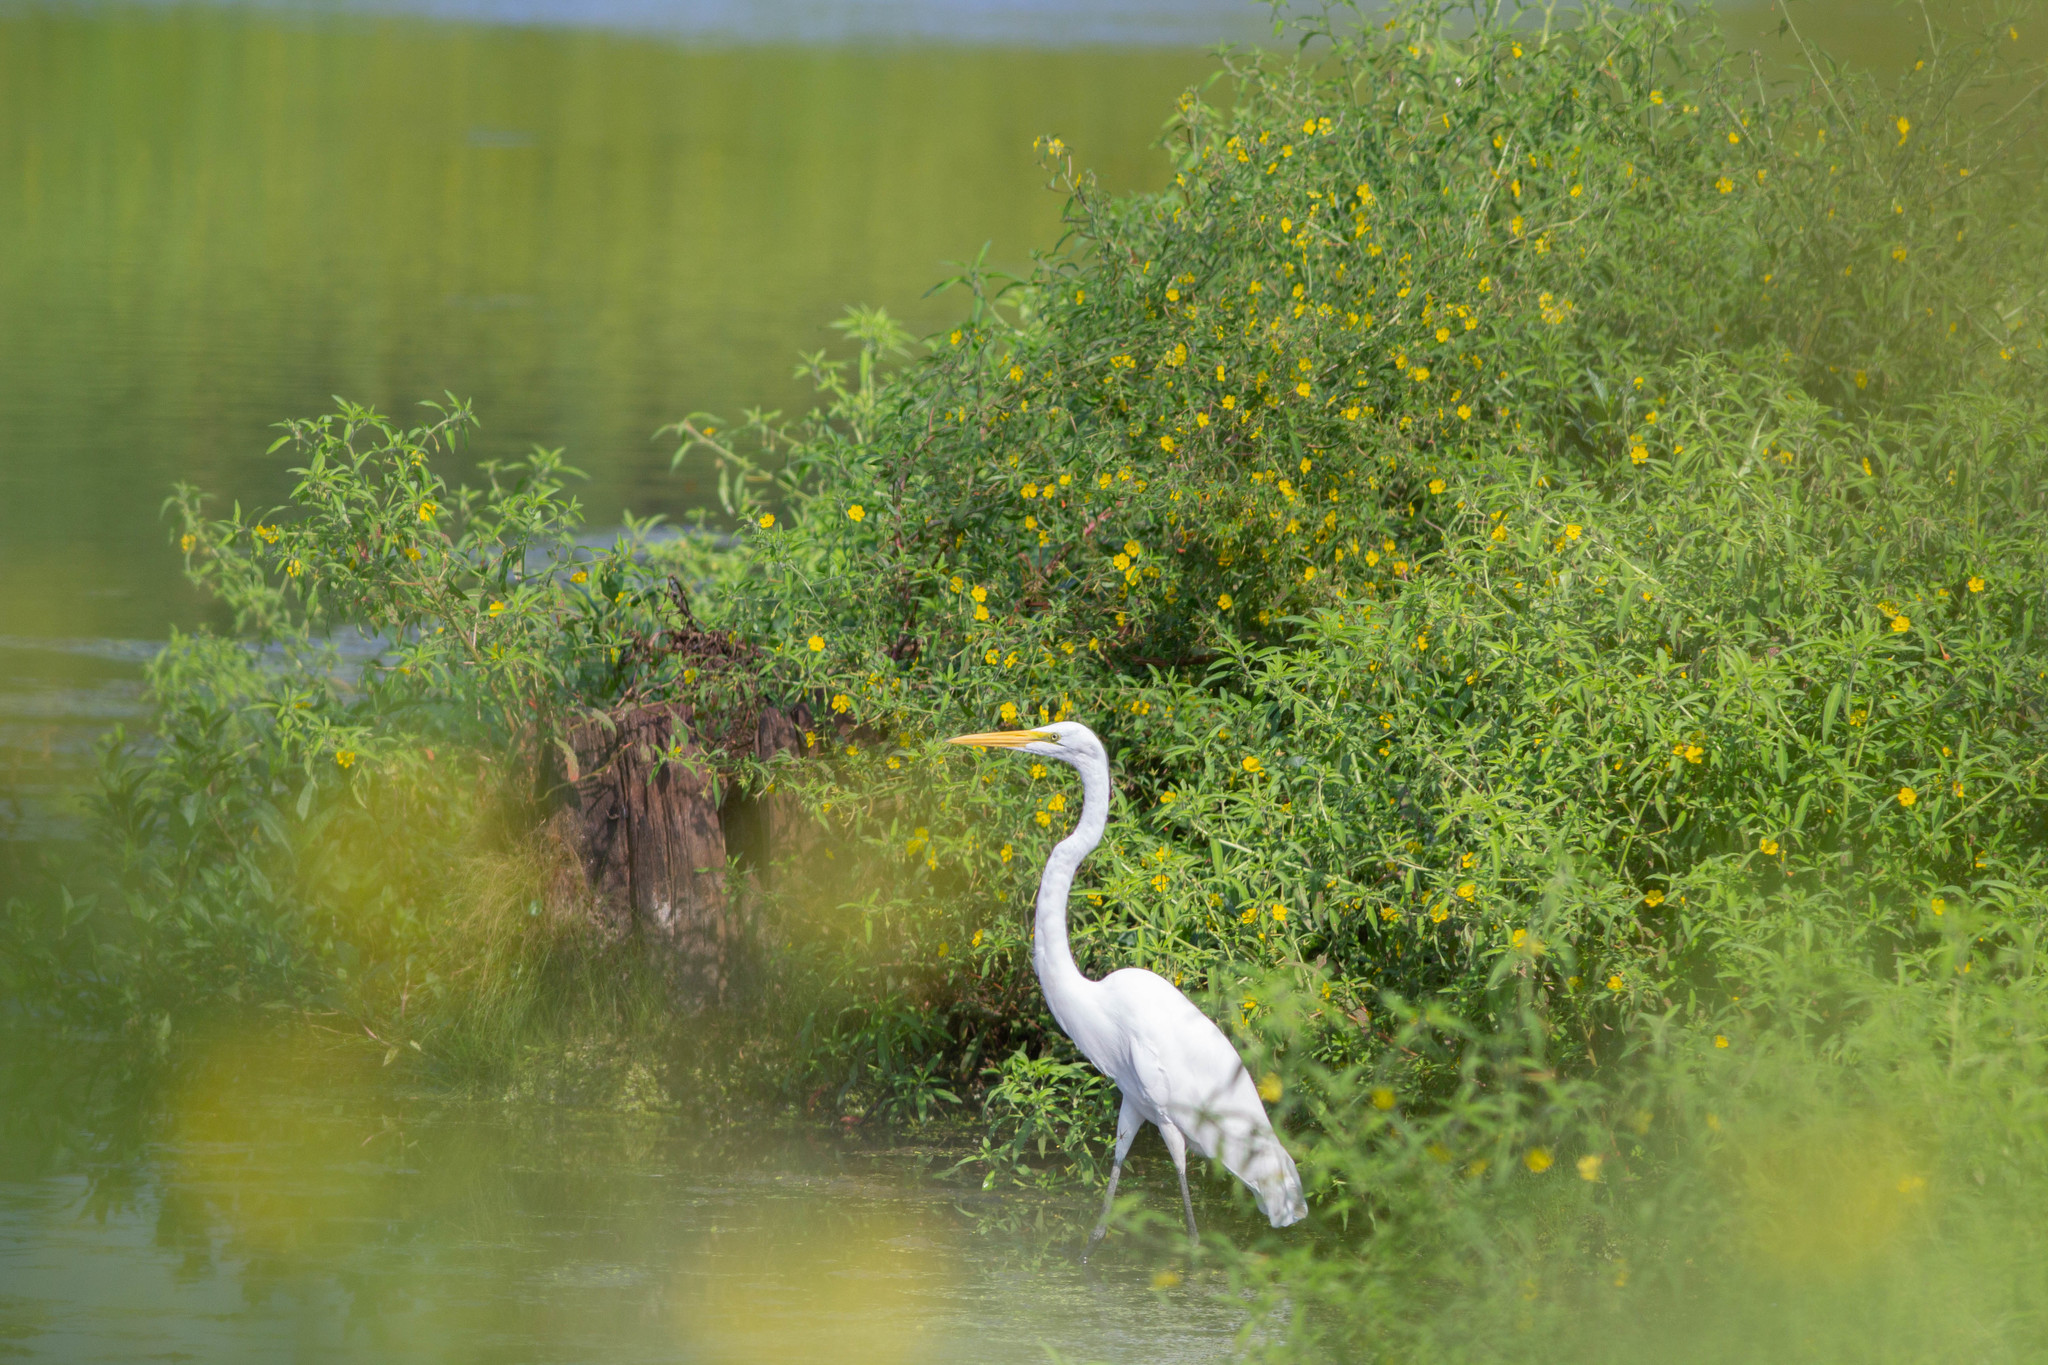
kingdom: Animalia
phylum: Chordata
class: Aves
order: Pelecaniformes
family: Ardeidae
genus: Ardea
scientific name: Ardea alba
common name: Great egret
